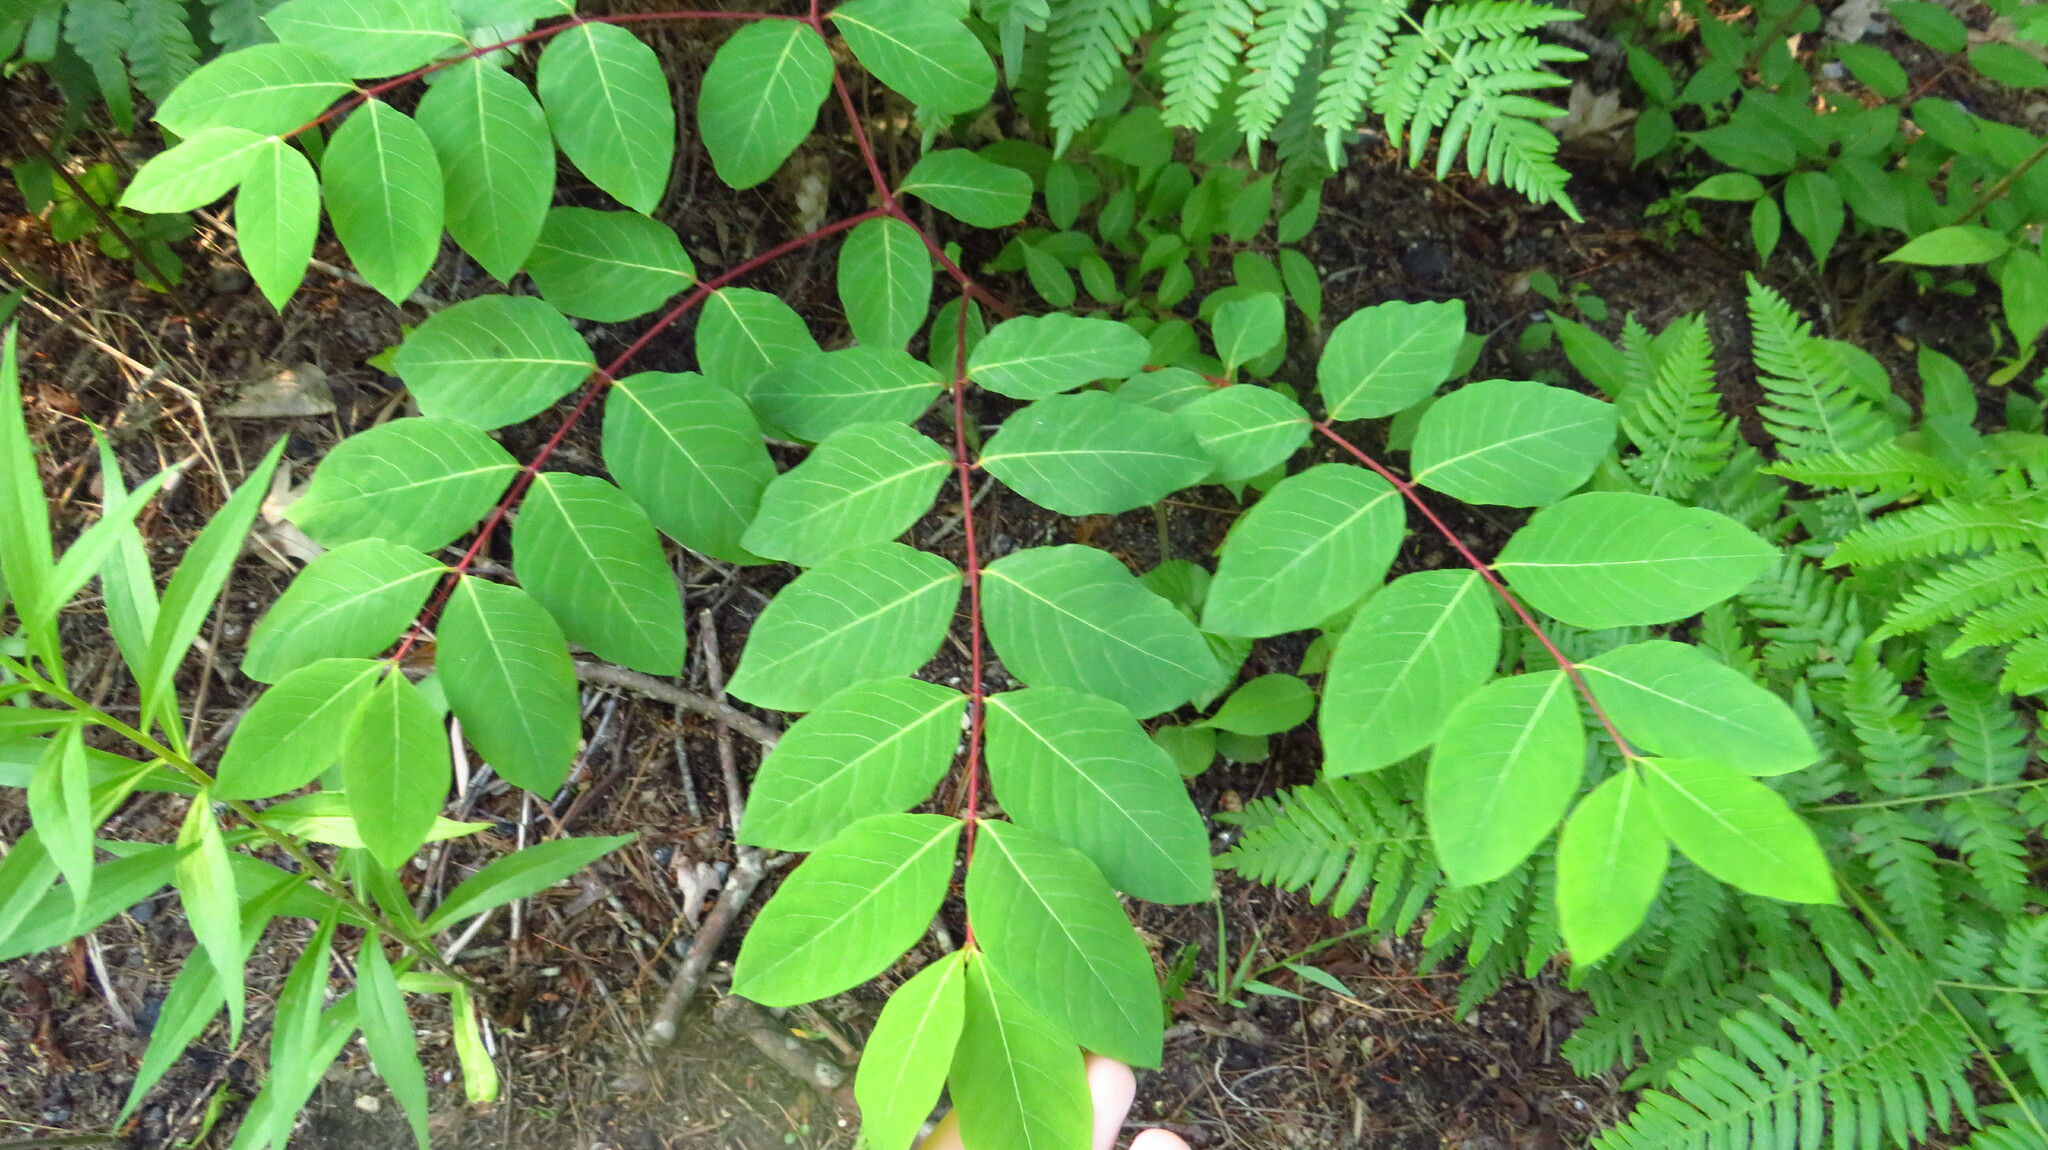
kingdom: Plantae
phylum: Tracheophyta
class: Magnoliopsida
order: Gentianales
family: Apocynaceae
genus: Apocynum
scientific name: Apocynum androsaemifolium
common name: Spreading dogbane
